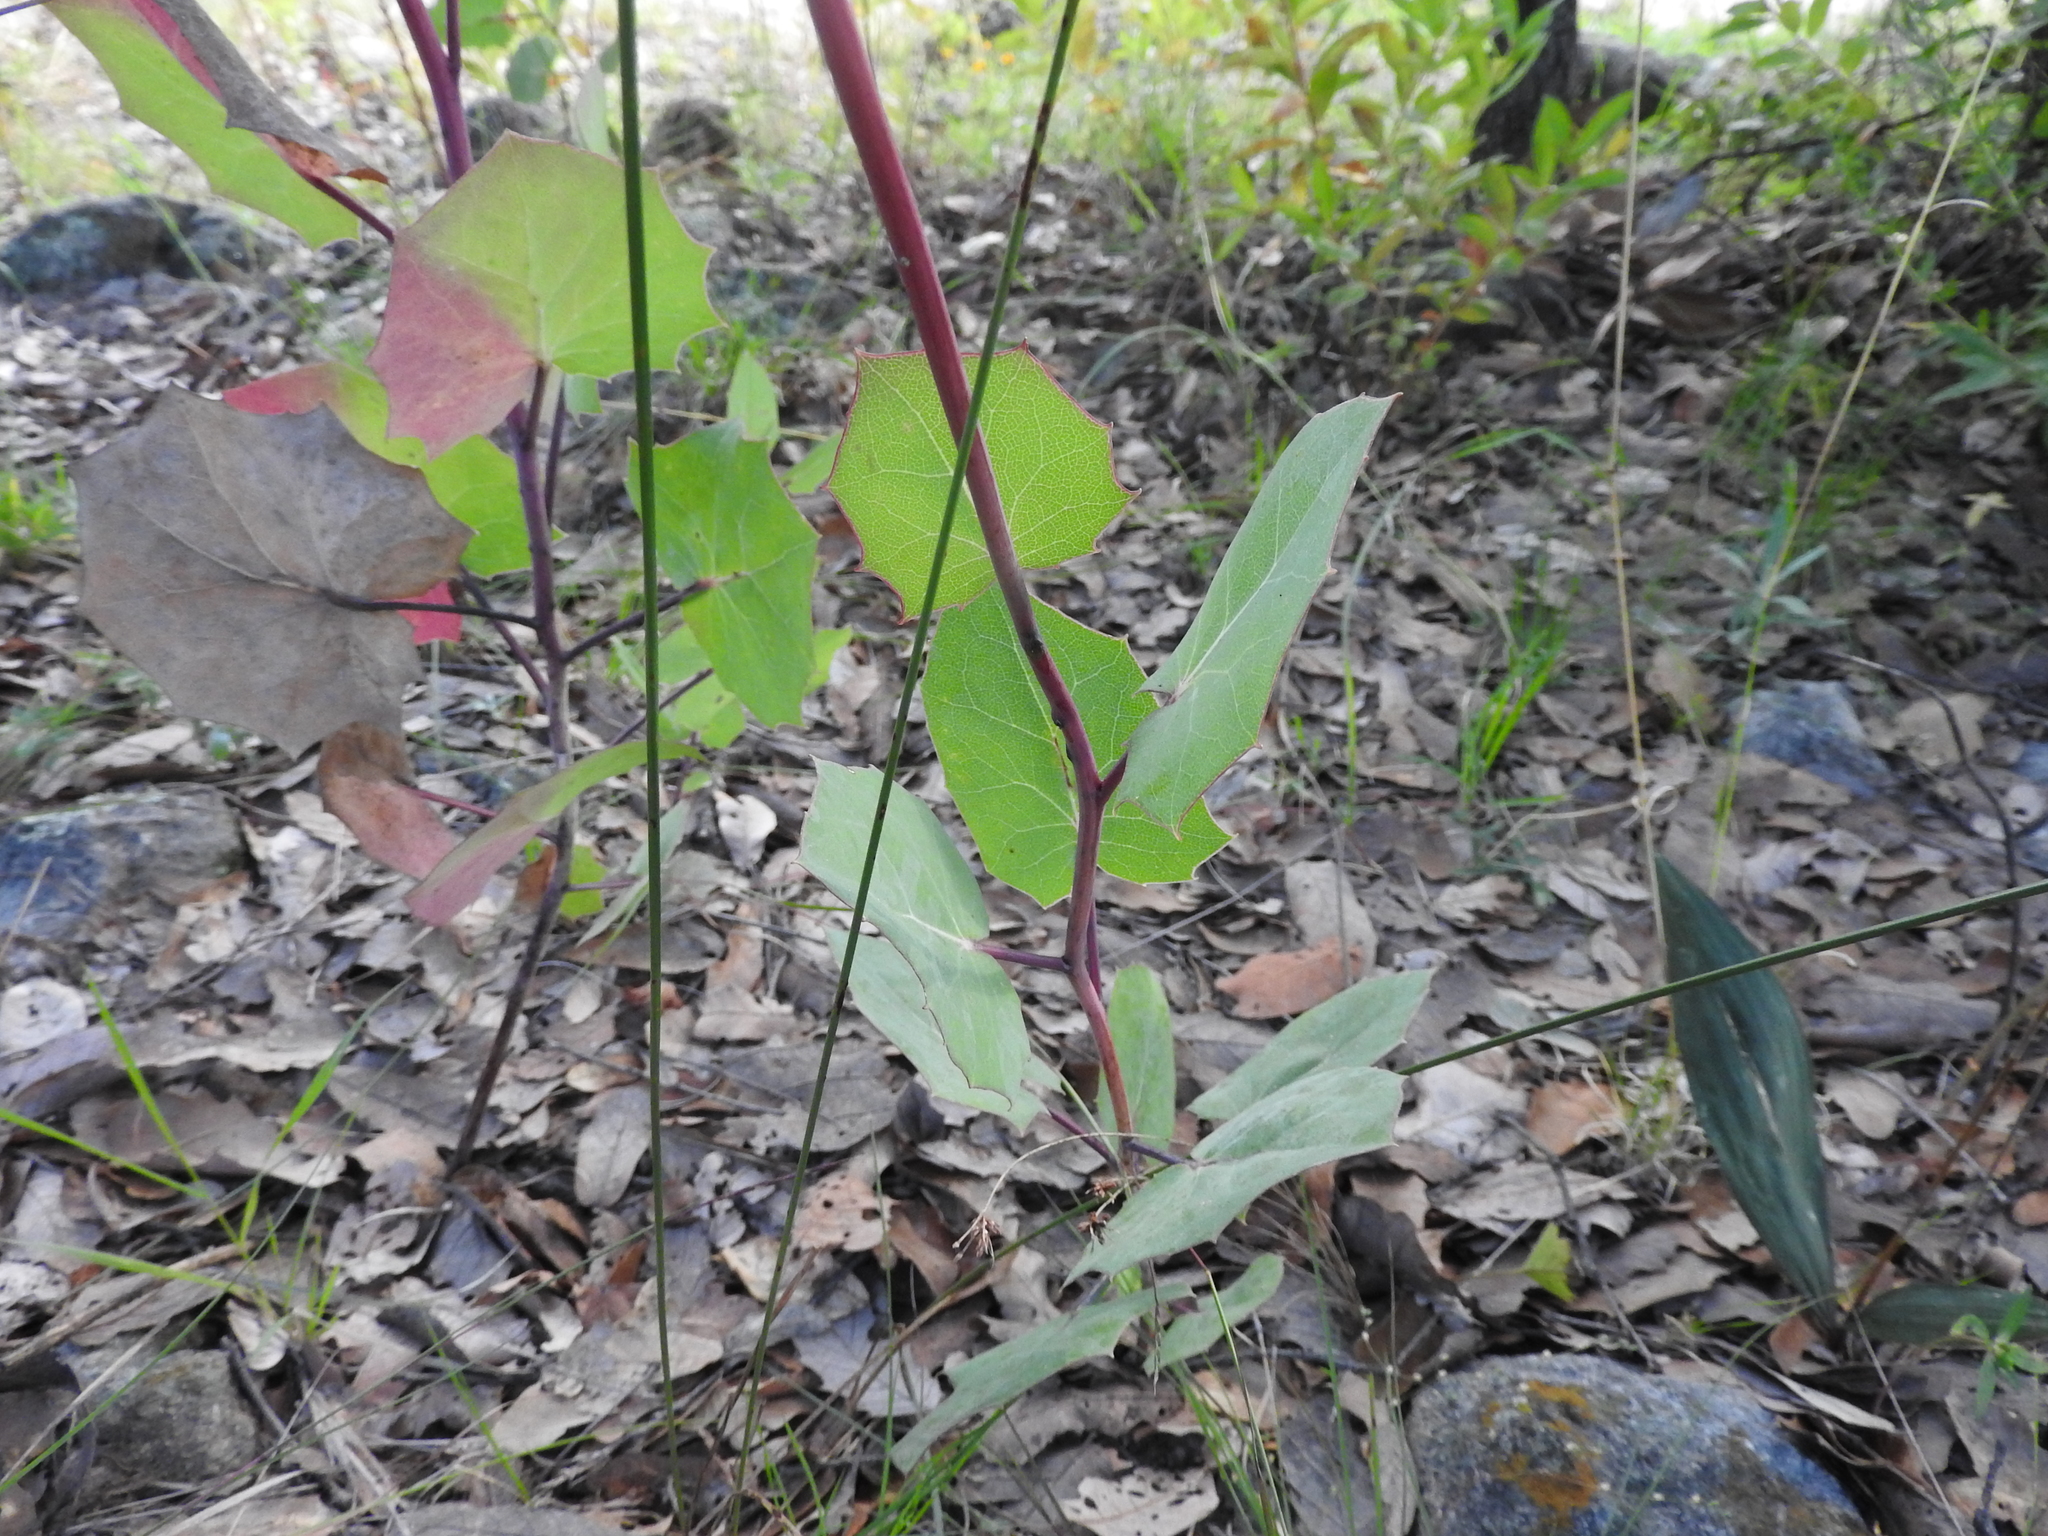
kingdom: Plantae
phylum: Tracheophyta
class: Magnoliopsida
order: Asterales
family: Asteraceae
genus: Roldana
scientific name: Roldana sessilifolia
